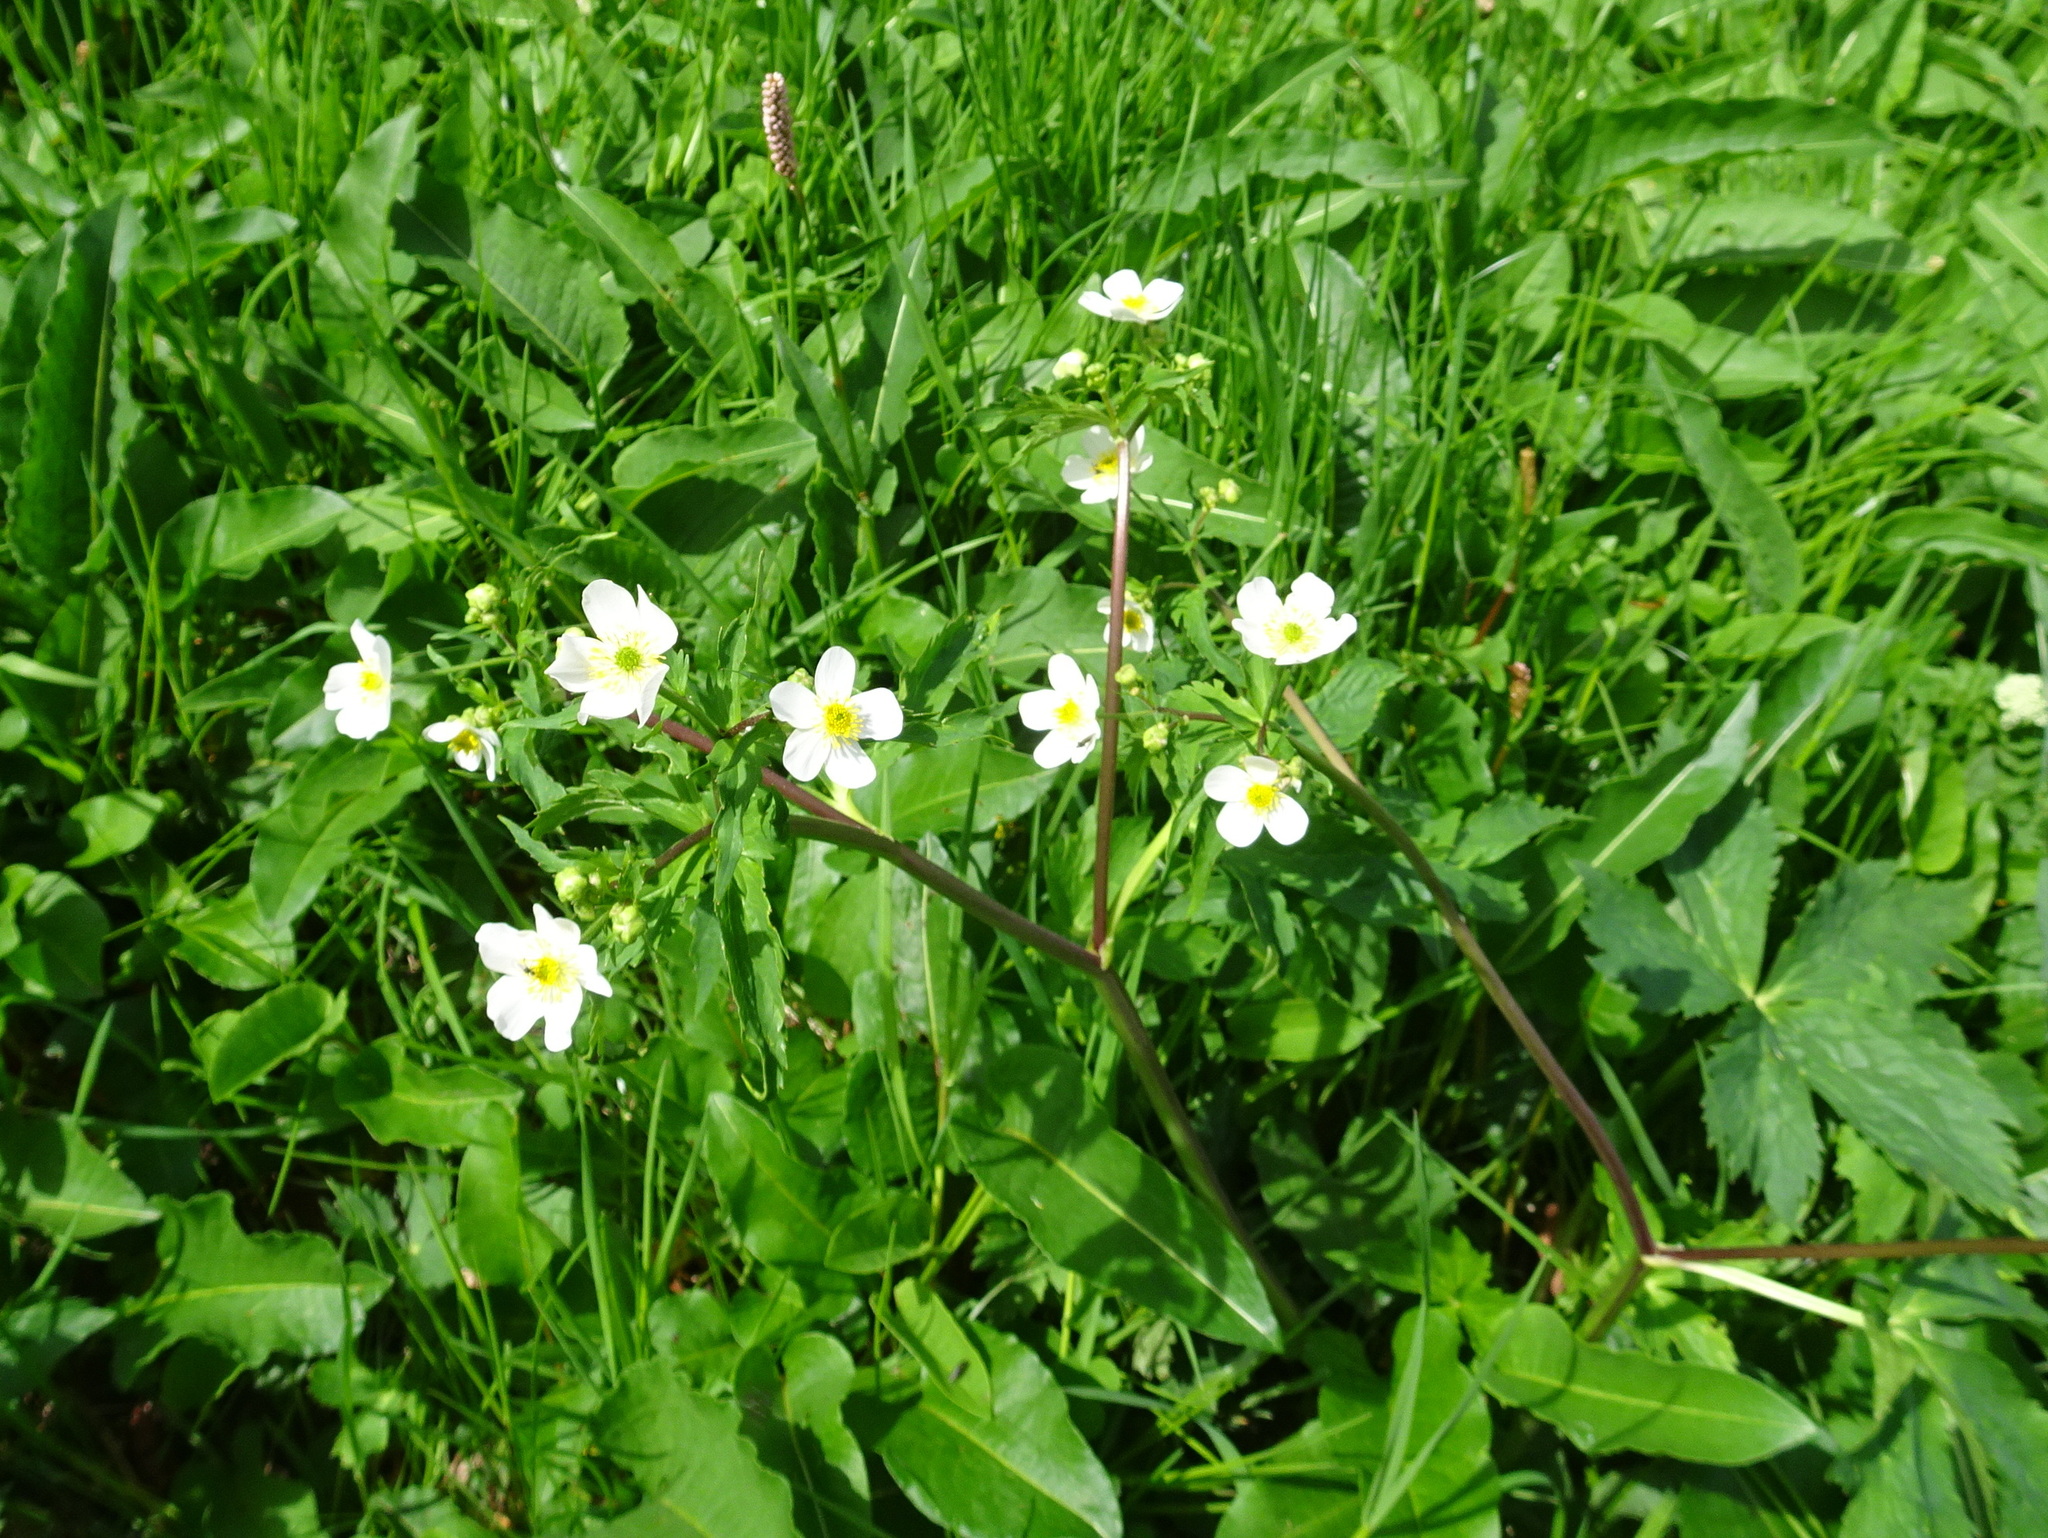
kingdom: Plantae
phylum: Tracheophyta
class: Magnoliopsida
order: Ranunculales
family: Ranunculaceae
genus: Ranunculus
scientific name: Ranunculus aconitifolius
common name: Aconite-leaved buttercup
